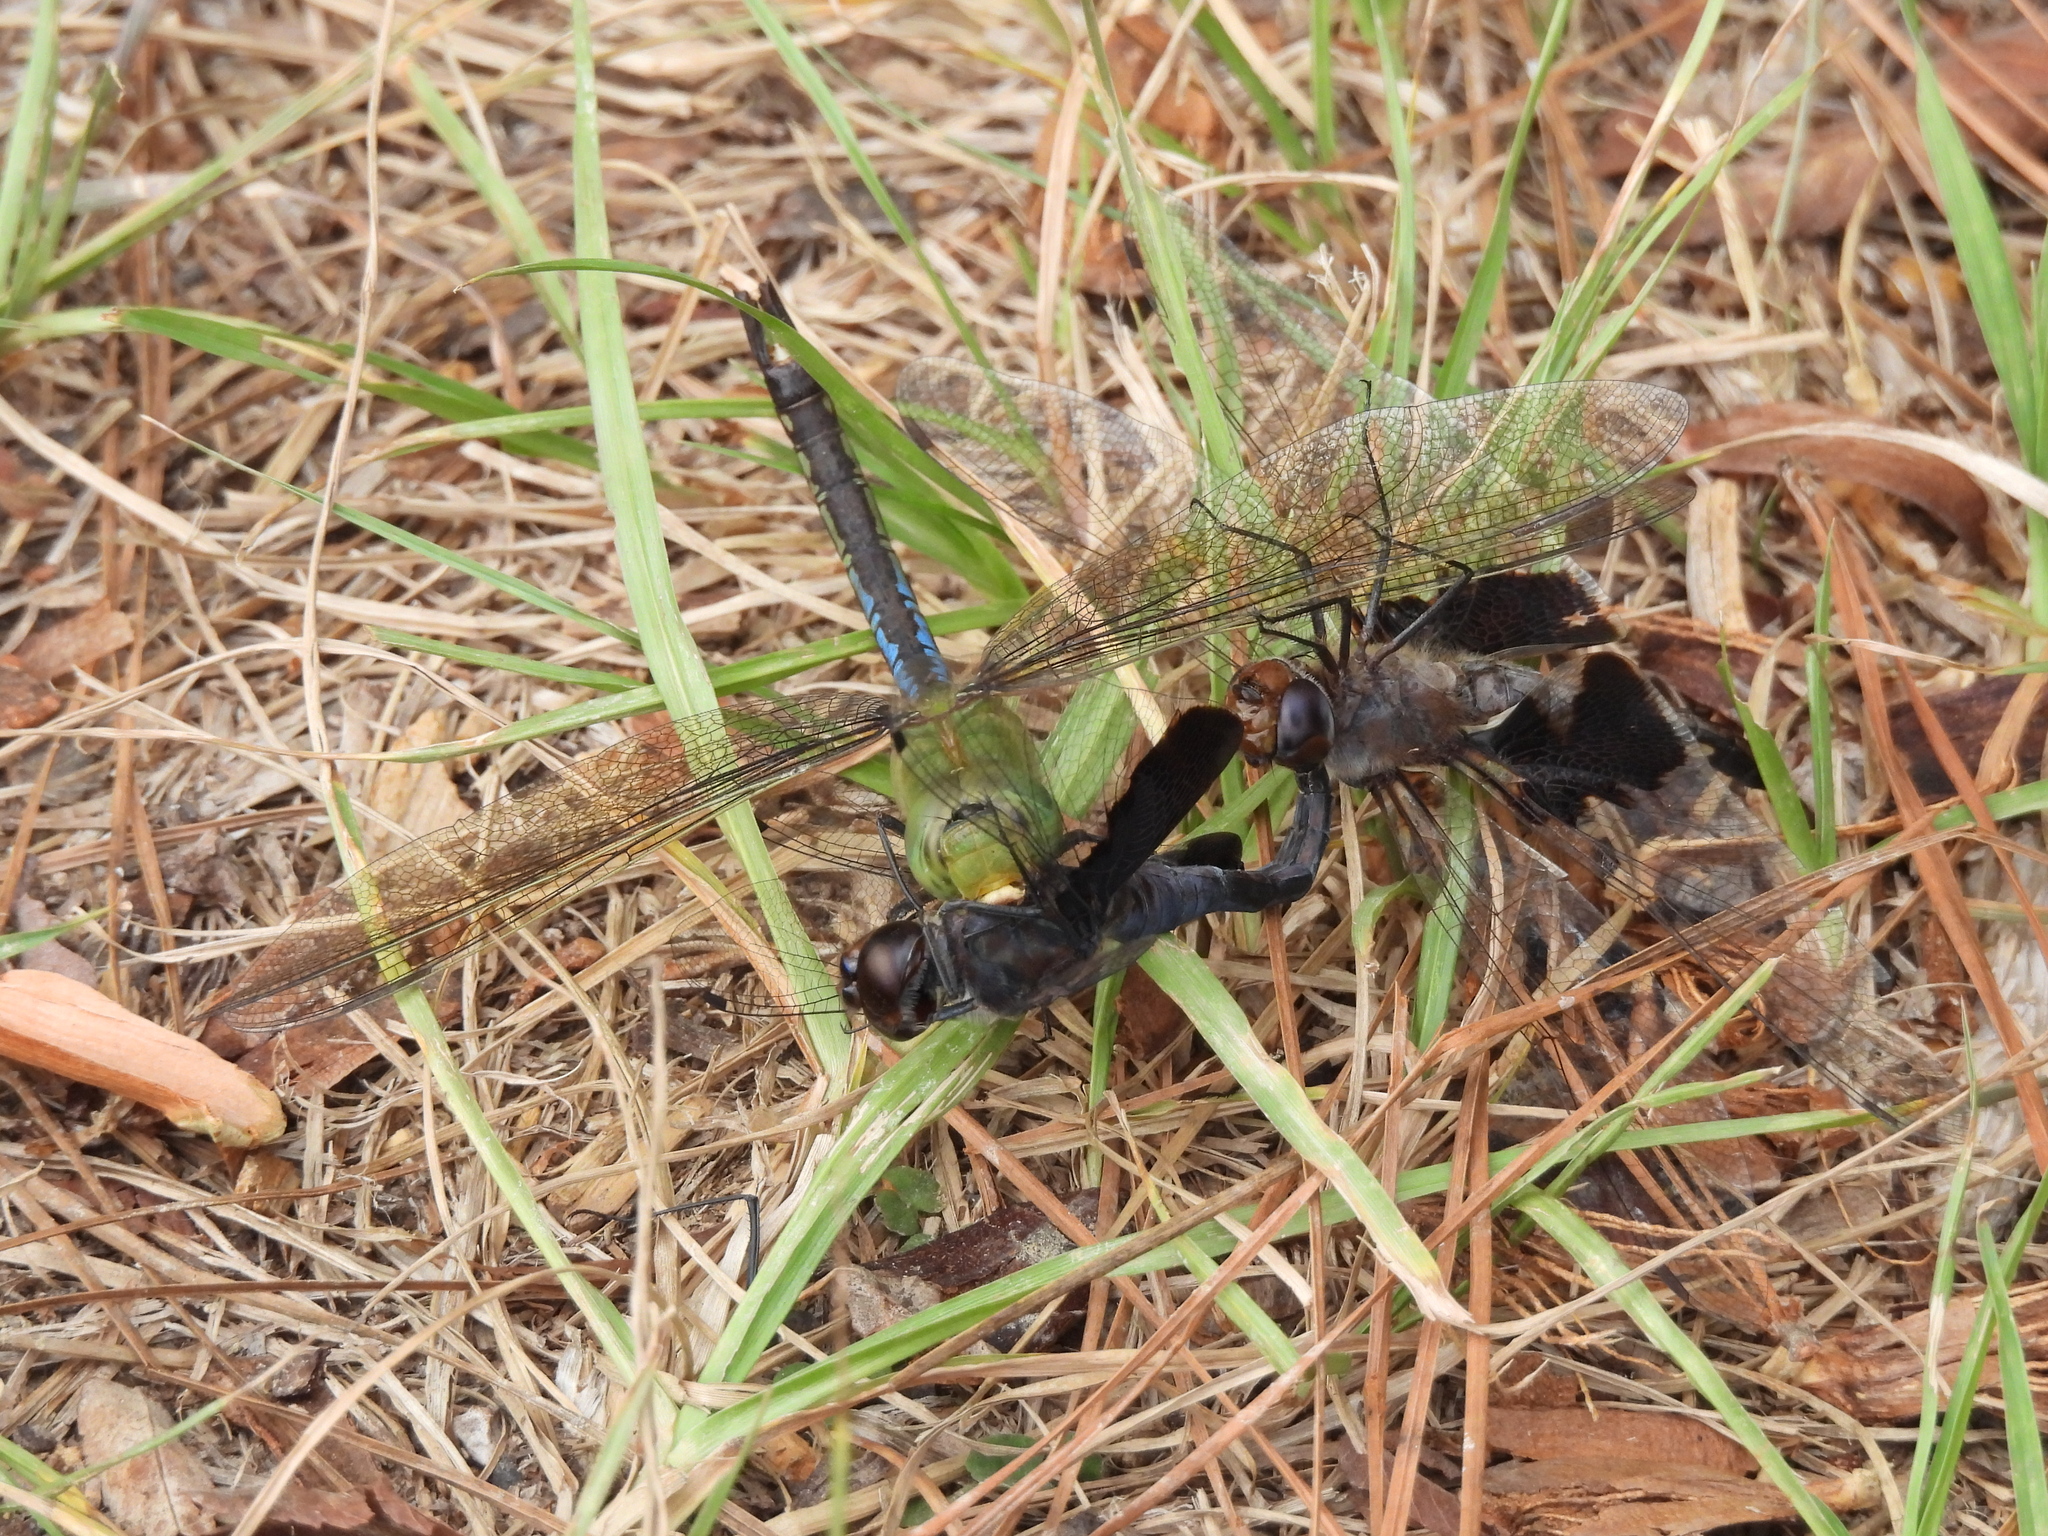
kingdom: Animalia
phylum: Arthropoda
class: Insecta
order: Odonata
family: Aeshnidae
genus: Anax
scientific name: Anax junius
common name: Common green darner
